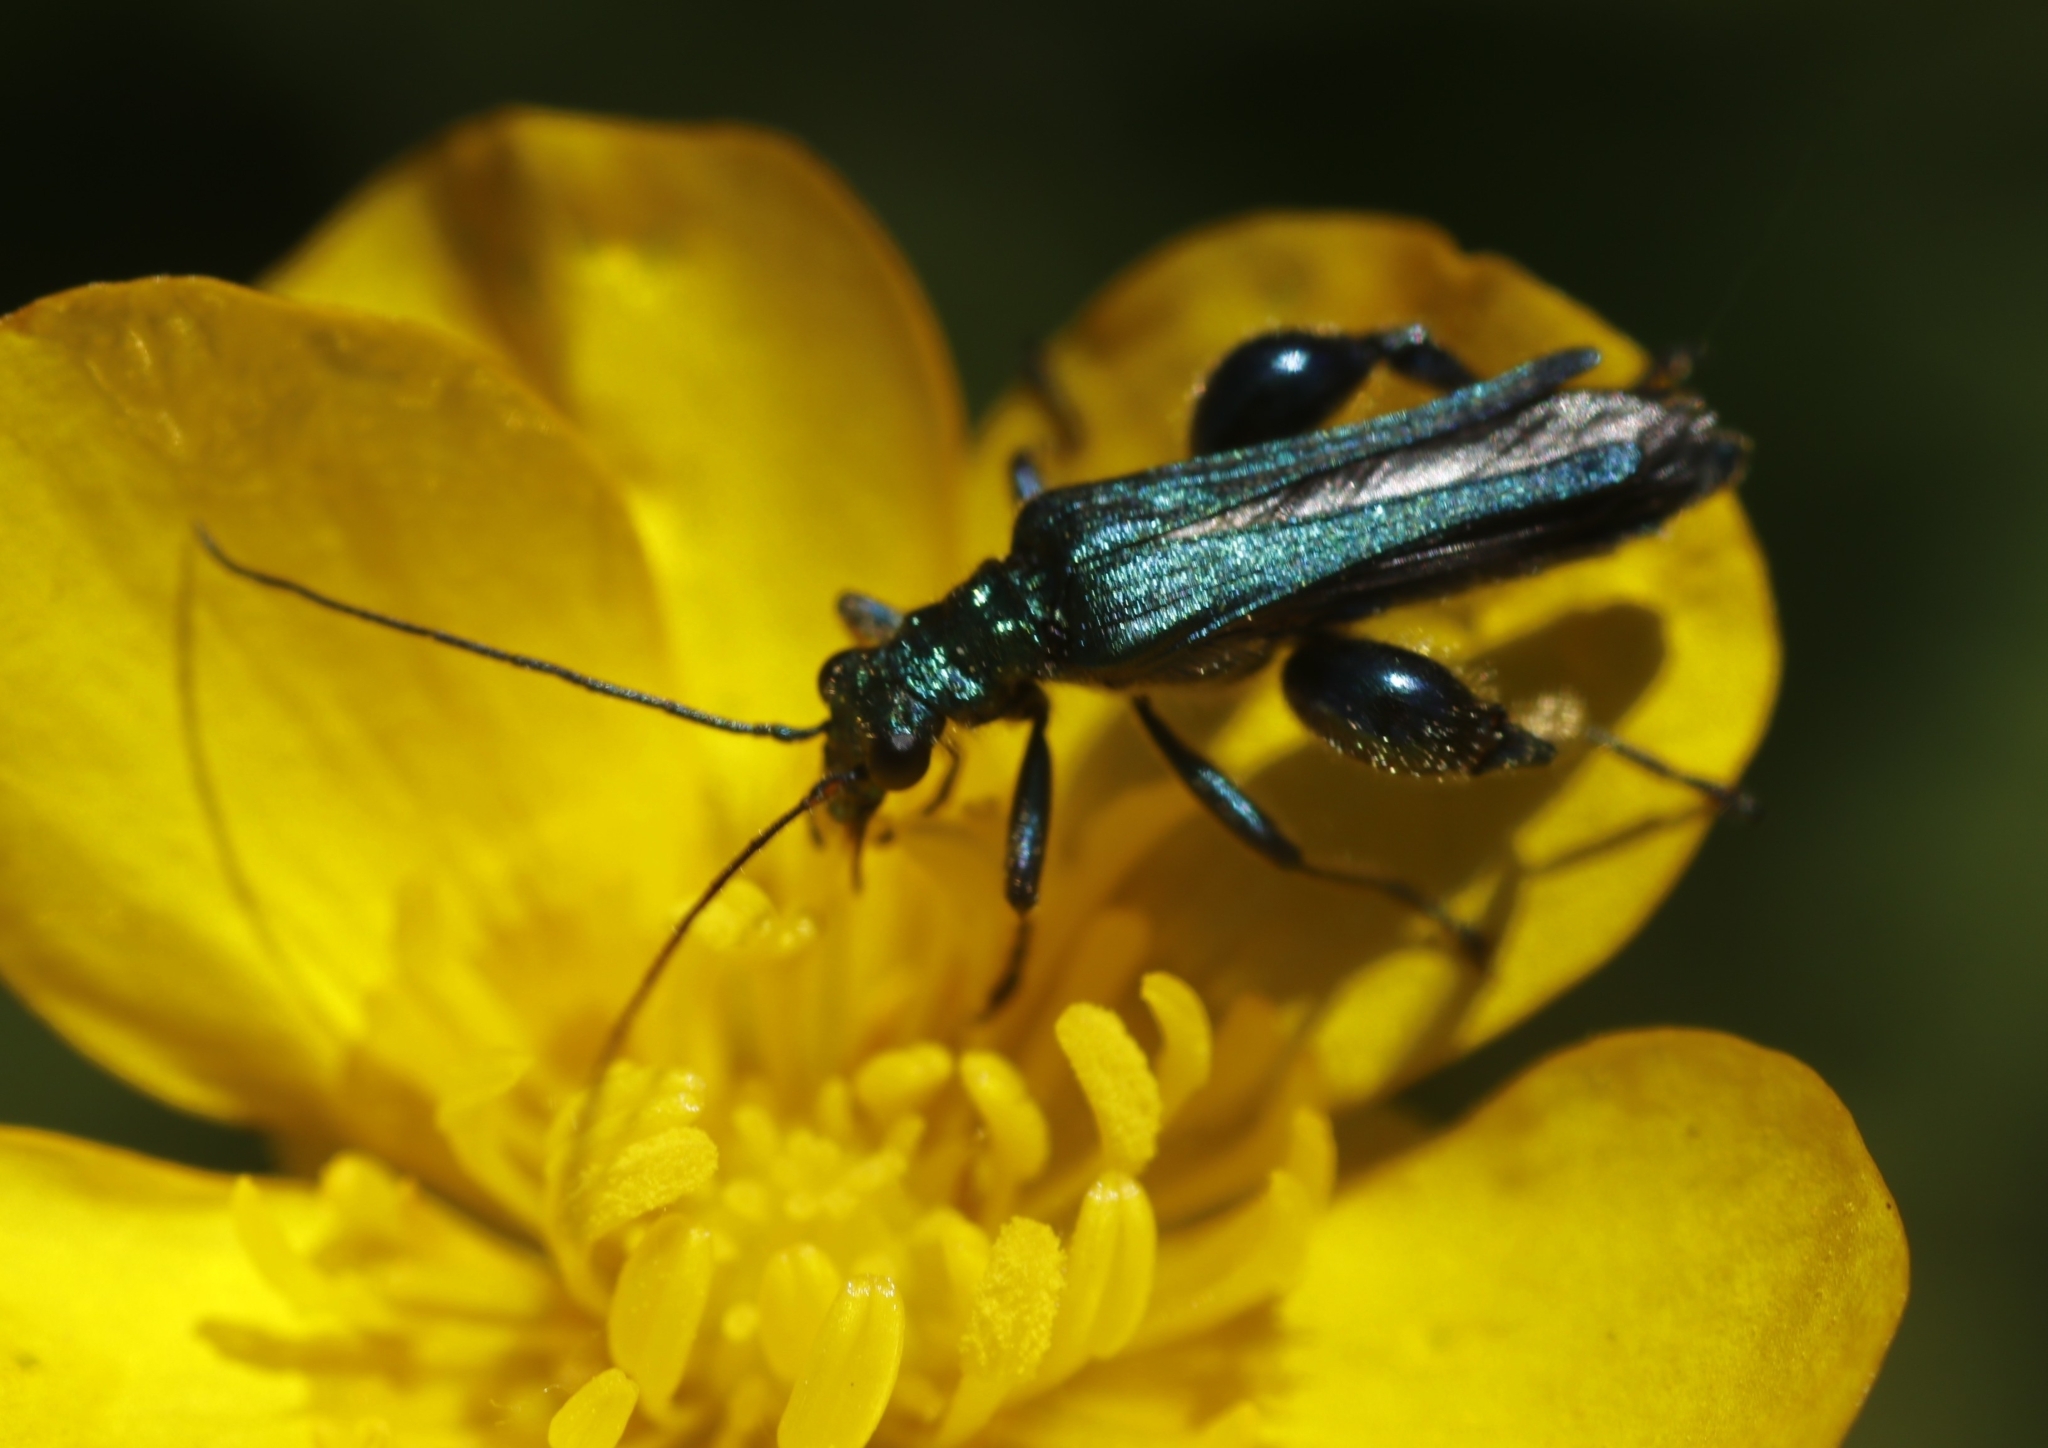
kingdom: Animalia
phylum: Arthropoda
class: Insecta
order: Coleoptera
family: Oedemeridae
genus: Oedemera
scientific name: Oedemera nobilis
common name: Swollen-thighed beetle
